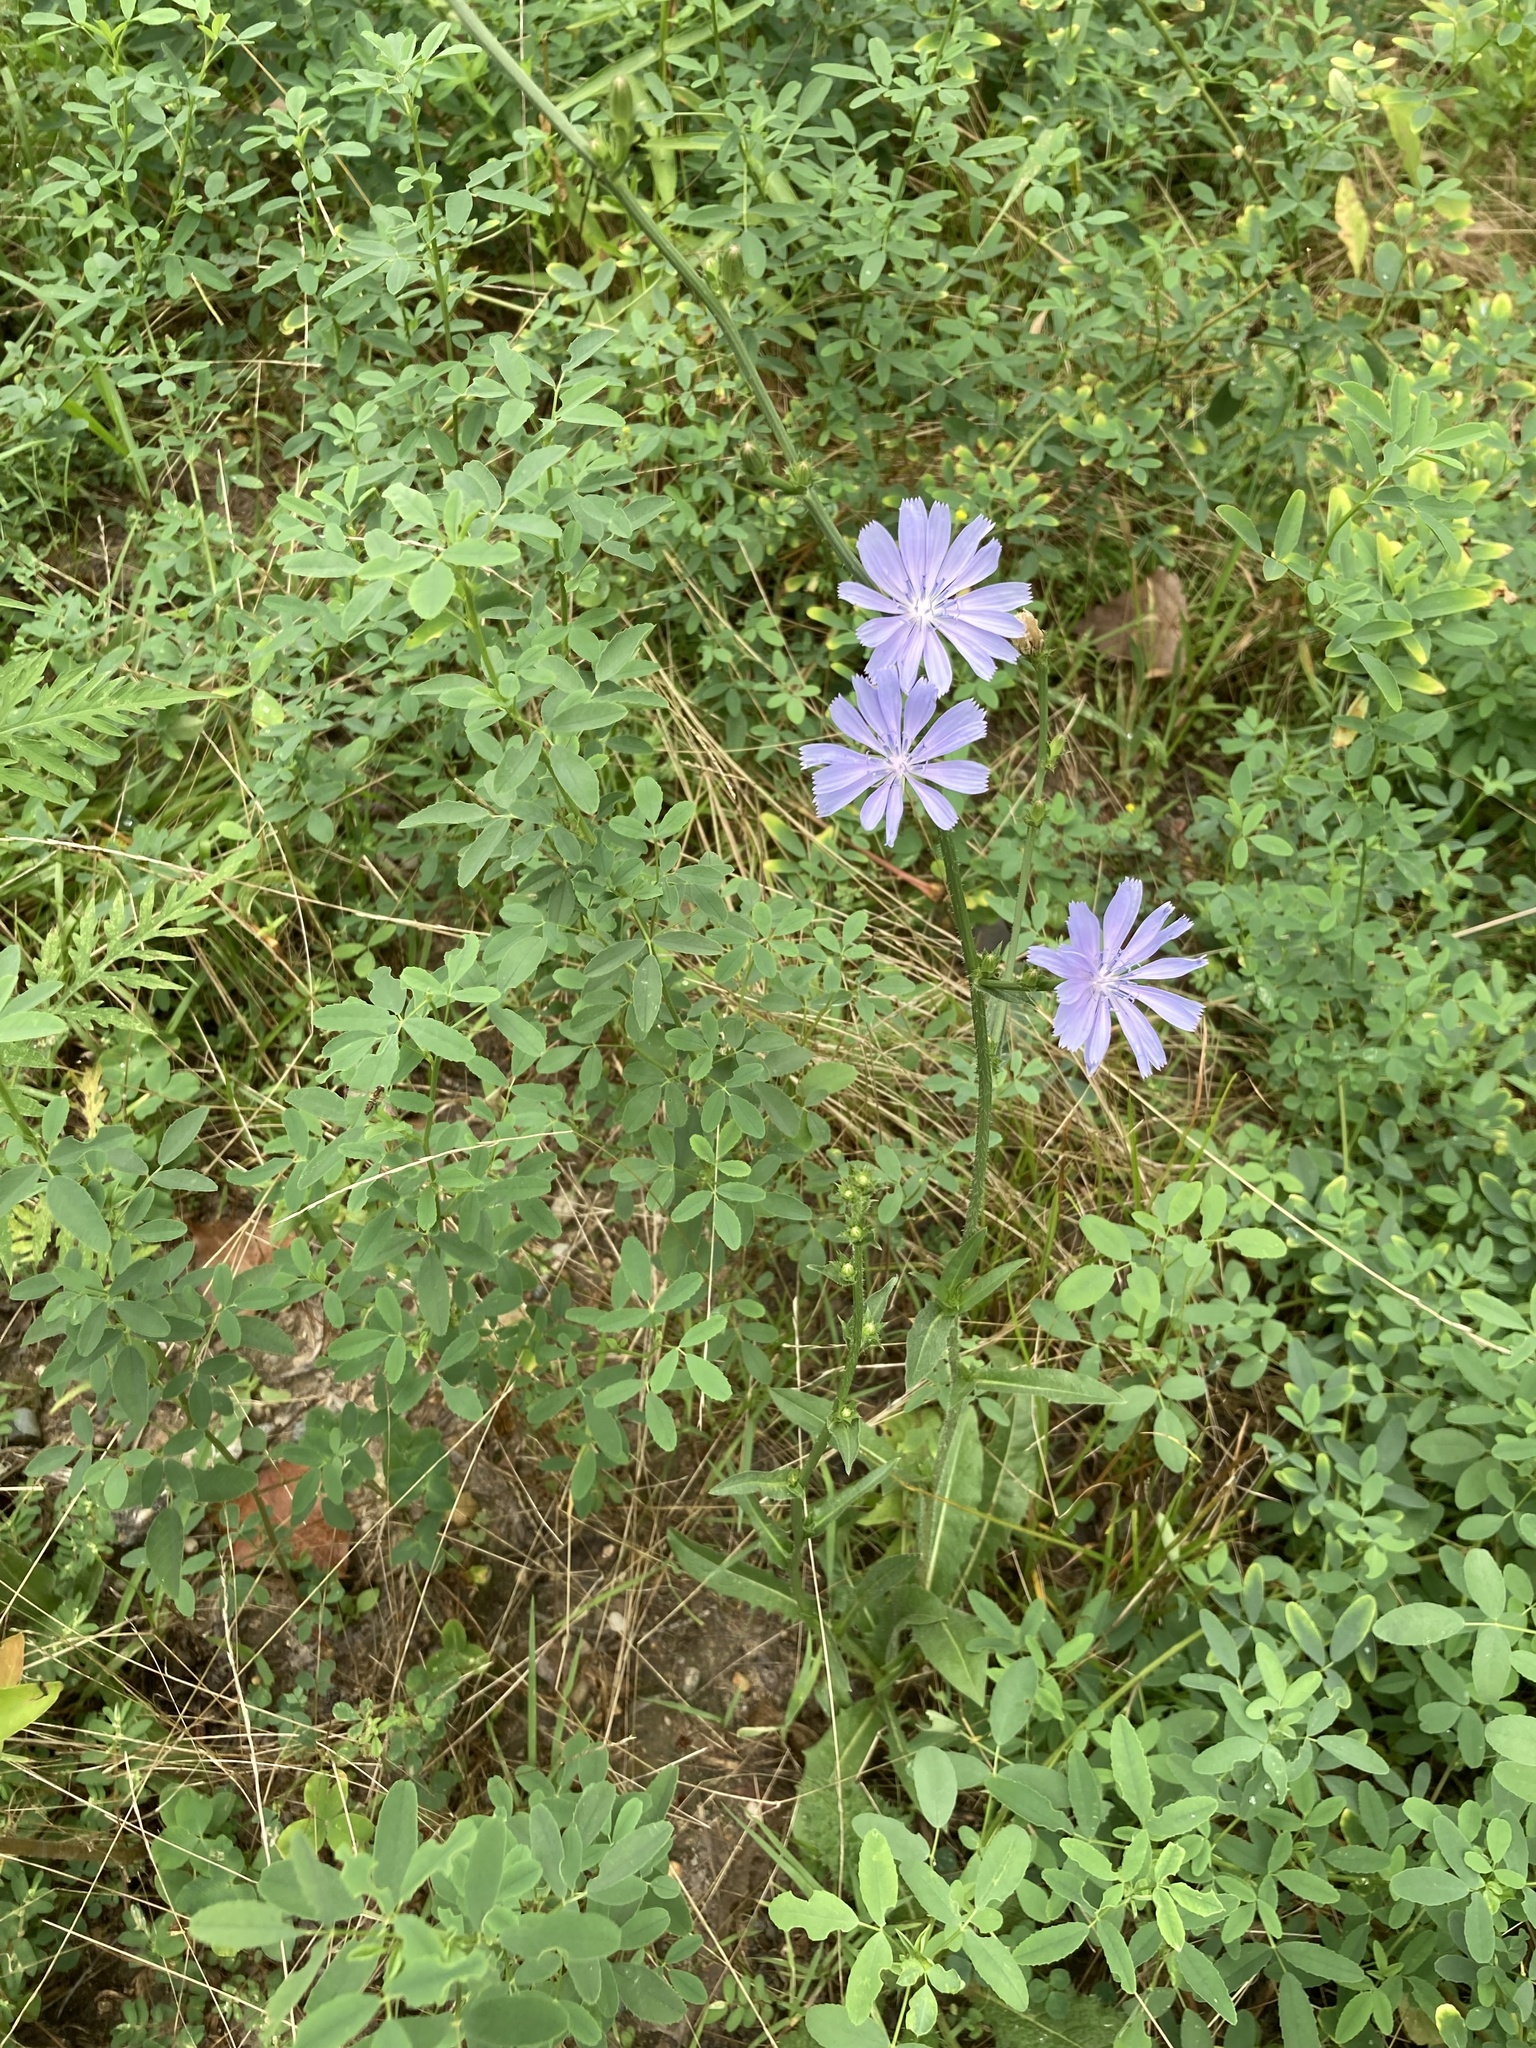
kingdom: Plantae
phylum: Tracheophyta
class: Magnoliopsida
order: Asterales
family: Asteraceae
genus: Cichorium
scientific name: Cichorium intybus
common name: Chicory
